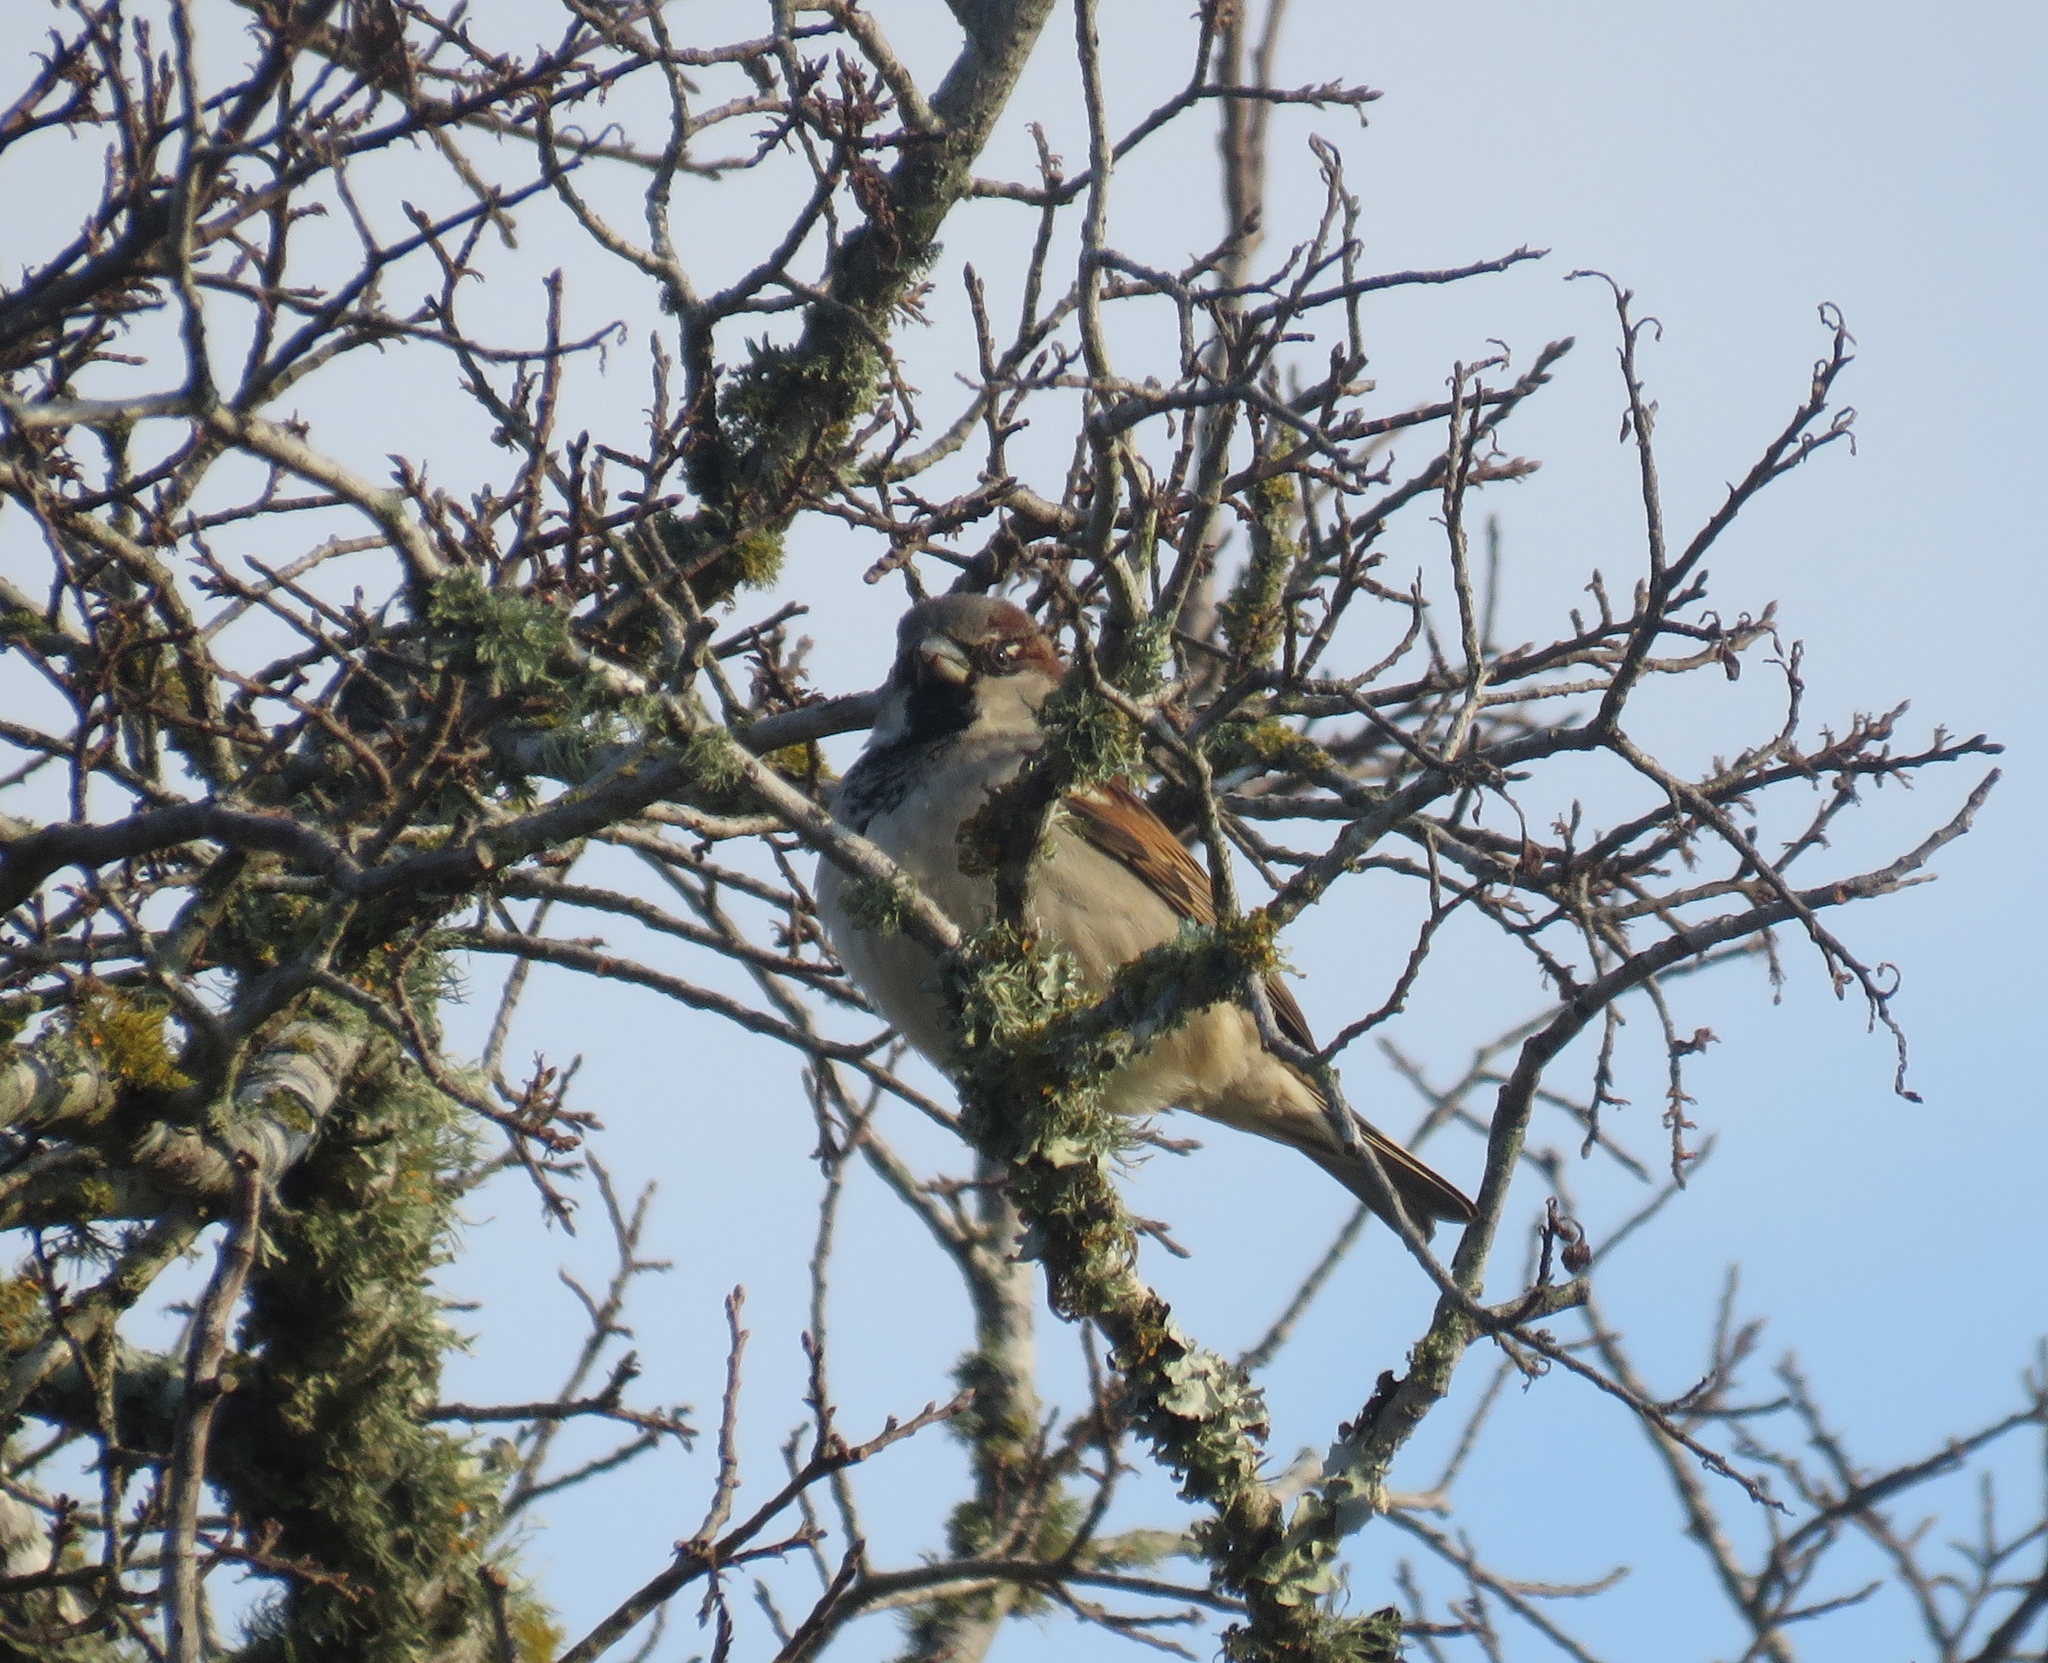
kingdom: Animalia
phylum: Chordata
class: Aves
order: Passeriformes
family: Passeridae
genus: Passer
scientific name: Passer domesticus
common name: House sparrow
